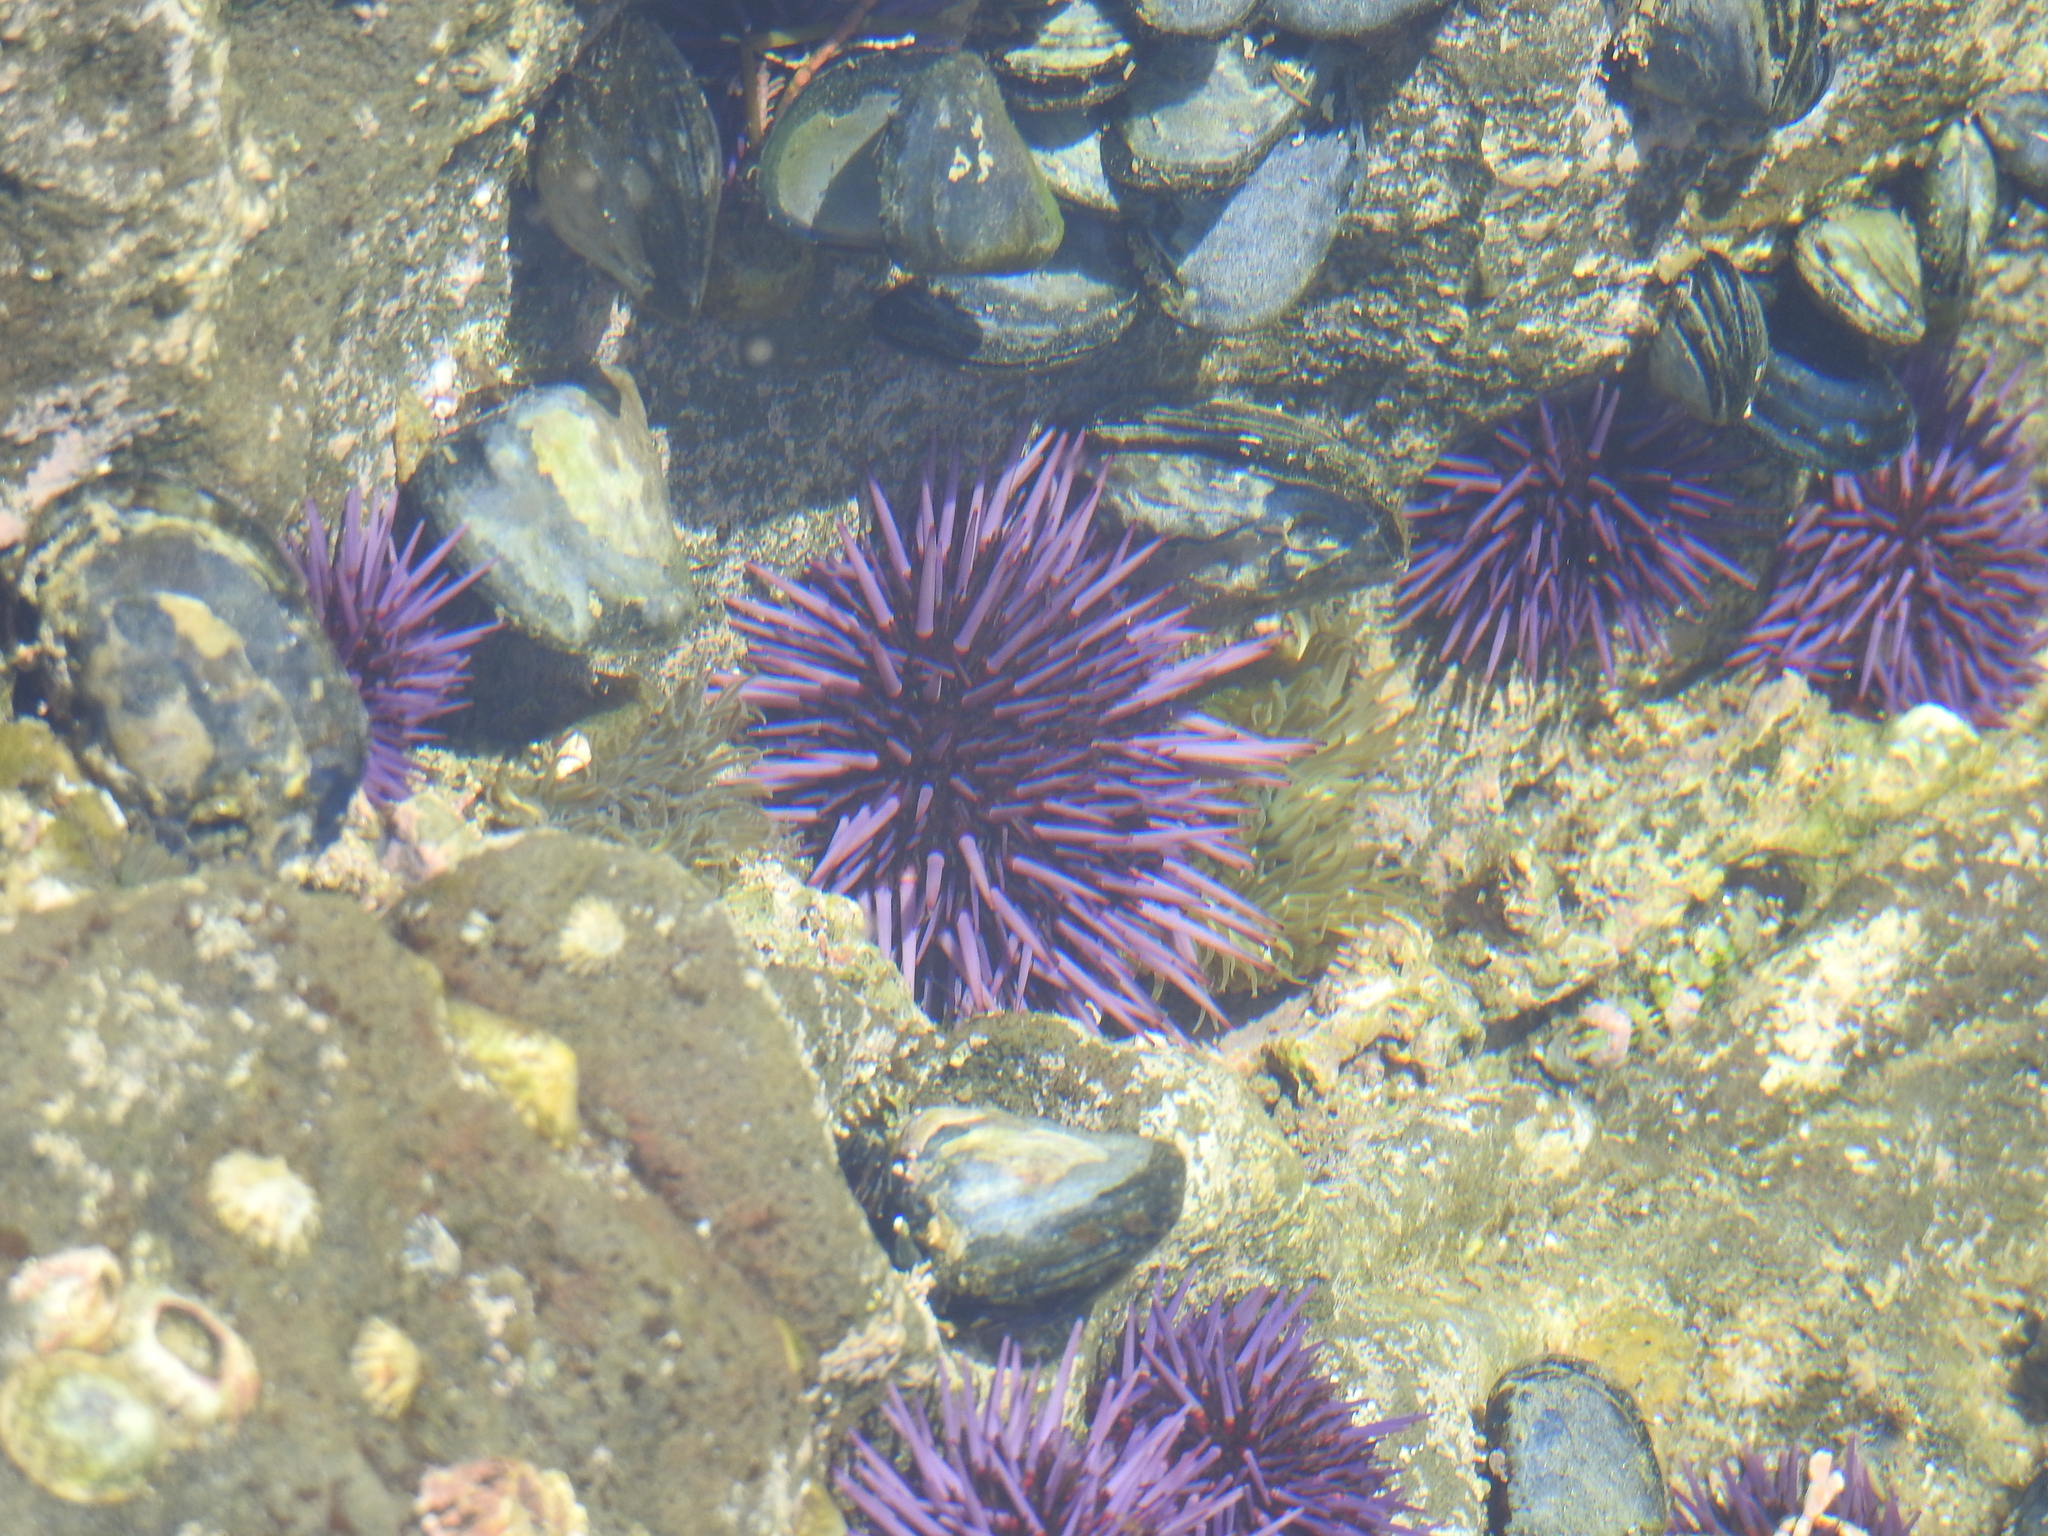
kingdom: Animalia
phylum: Echinodermata
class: Echinoidea
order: Camarodonta
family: Strongylocentrotidae
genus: Strongylocentrotus
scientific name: Strongylocentrotus purpuratus
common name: Purple sea urchin
